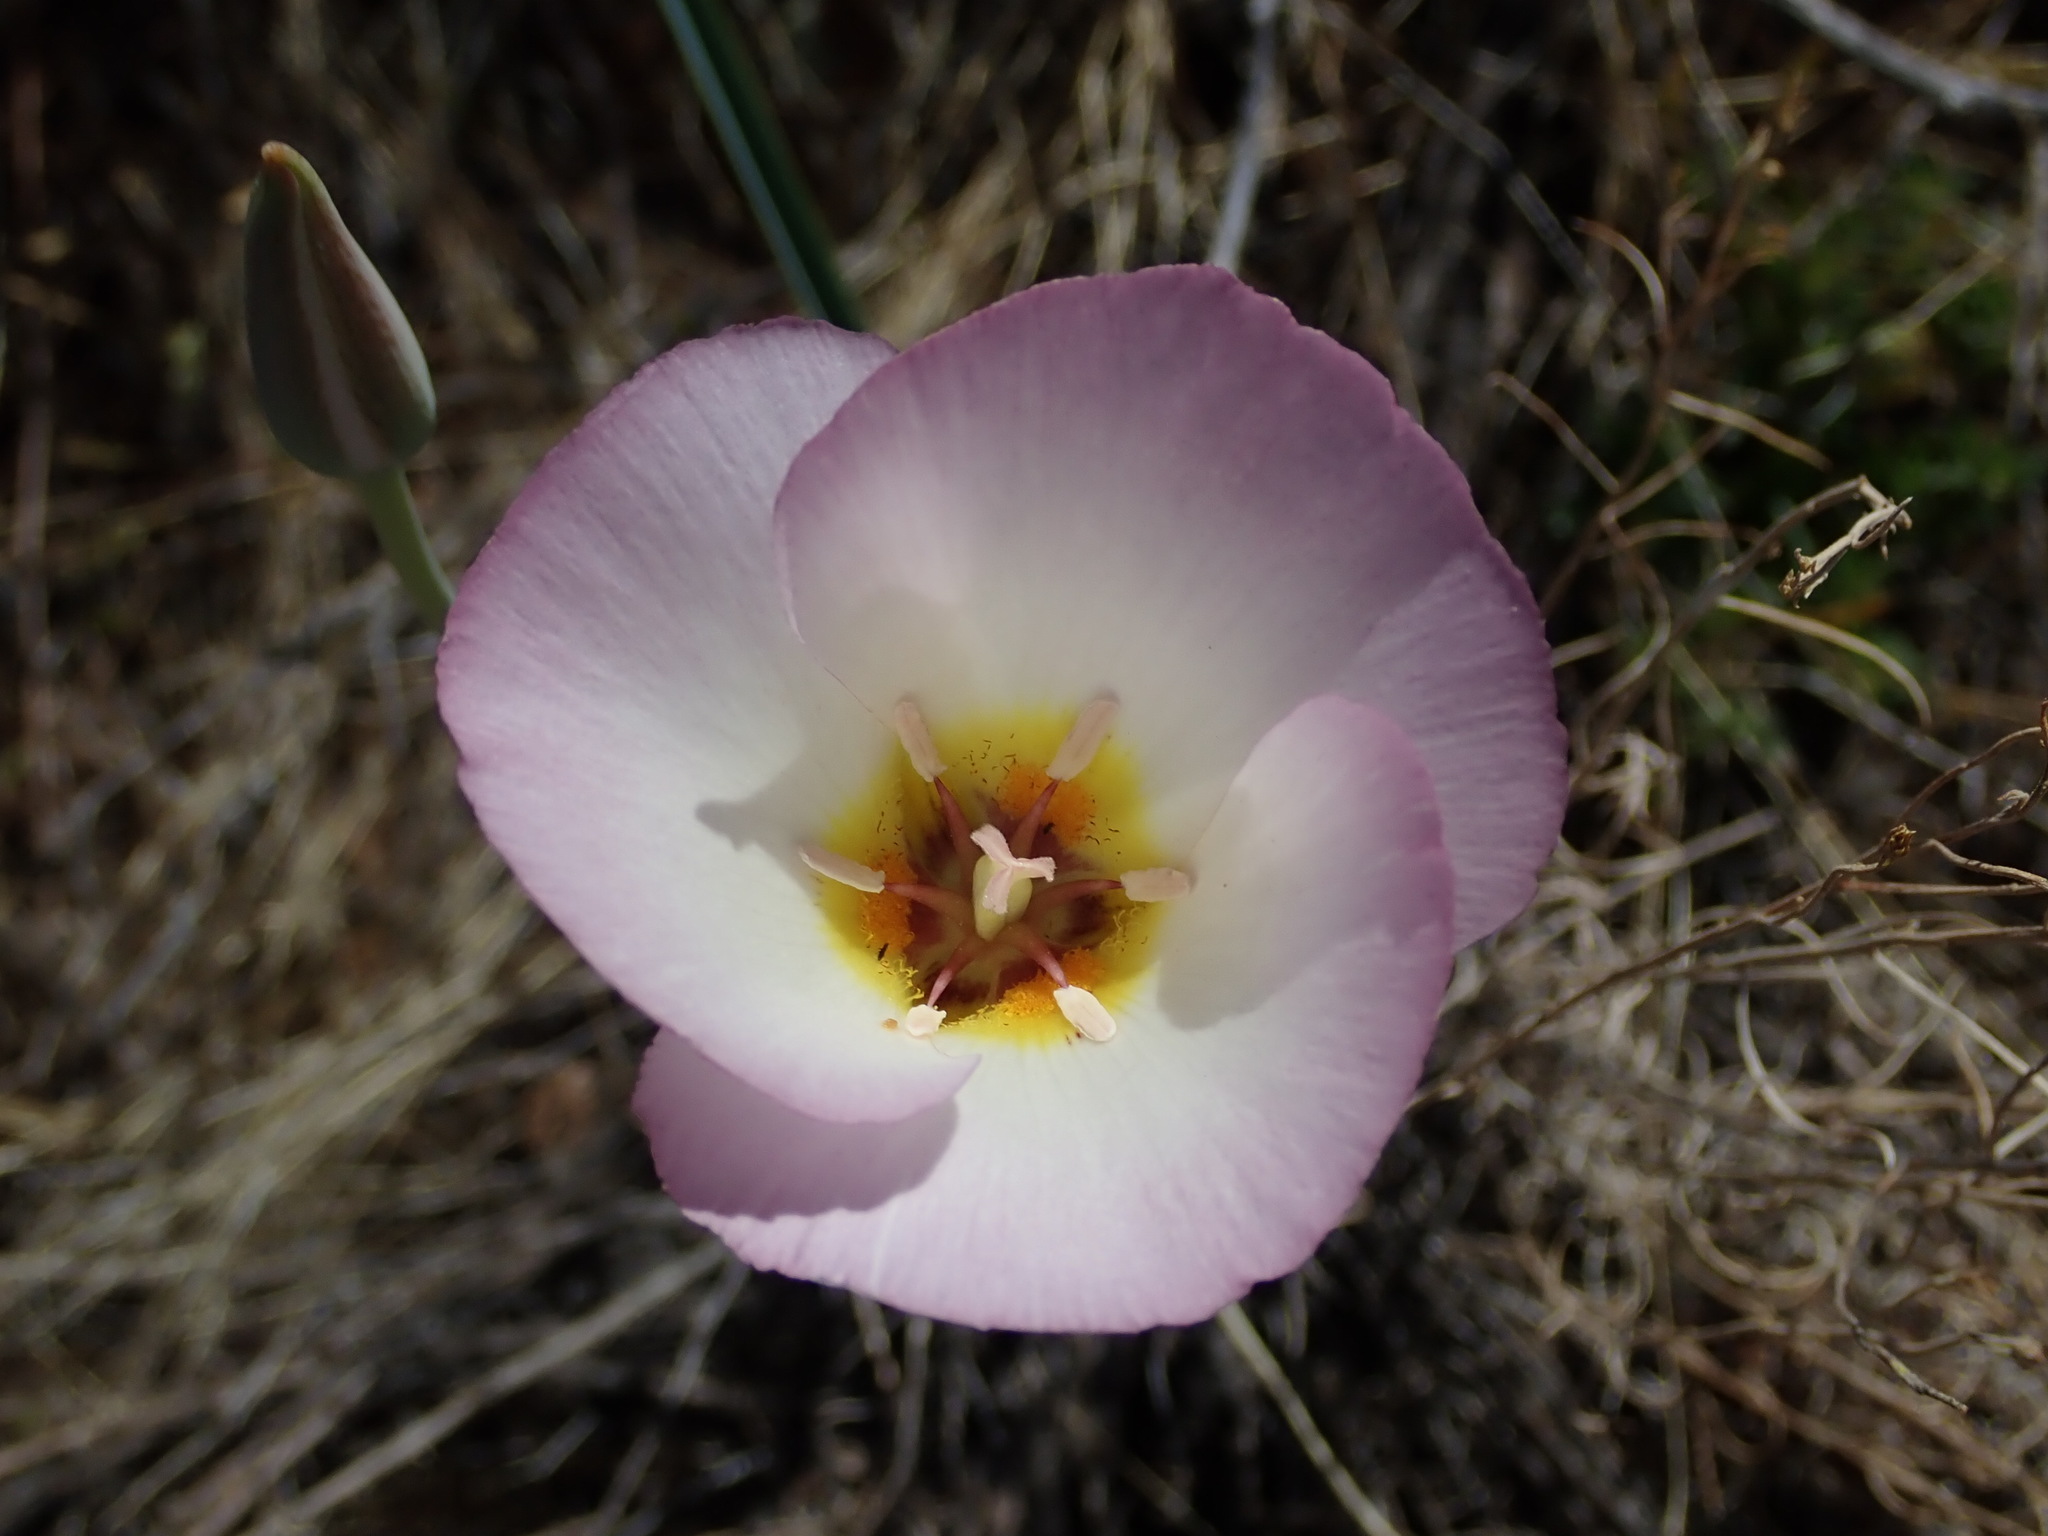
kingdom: Plantae
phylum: Tracheophyta
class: Liliopsida
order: Liliales
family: Liliaceae
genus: Calochortus
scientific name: Calochortus flexuosus
